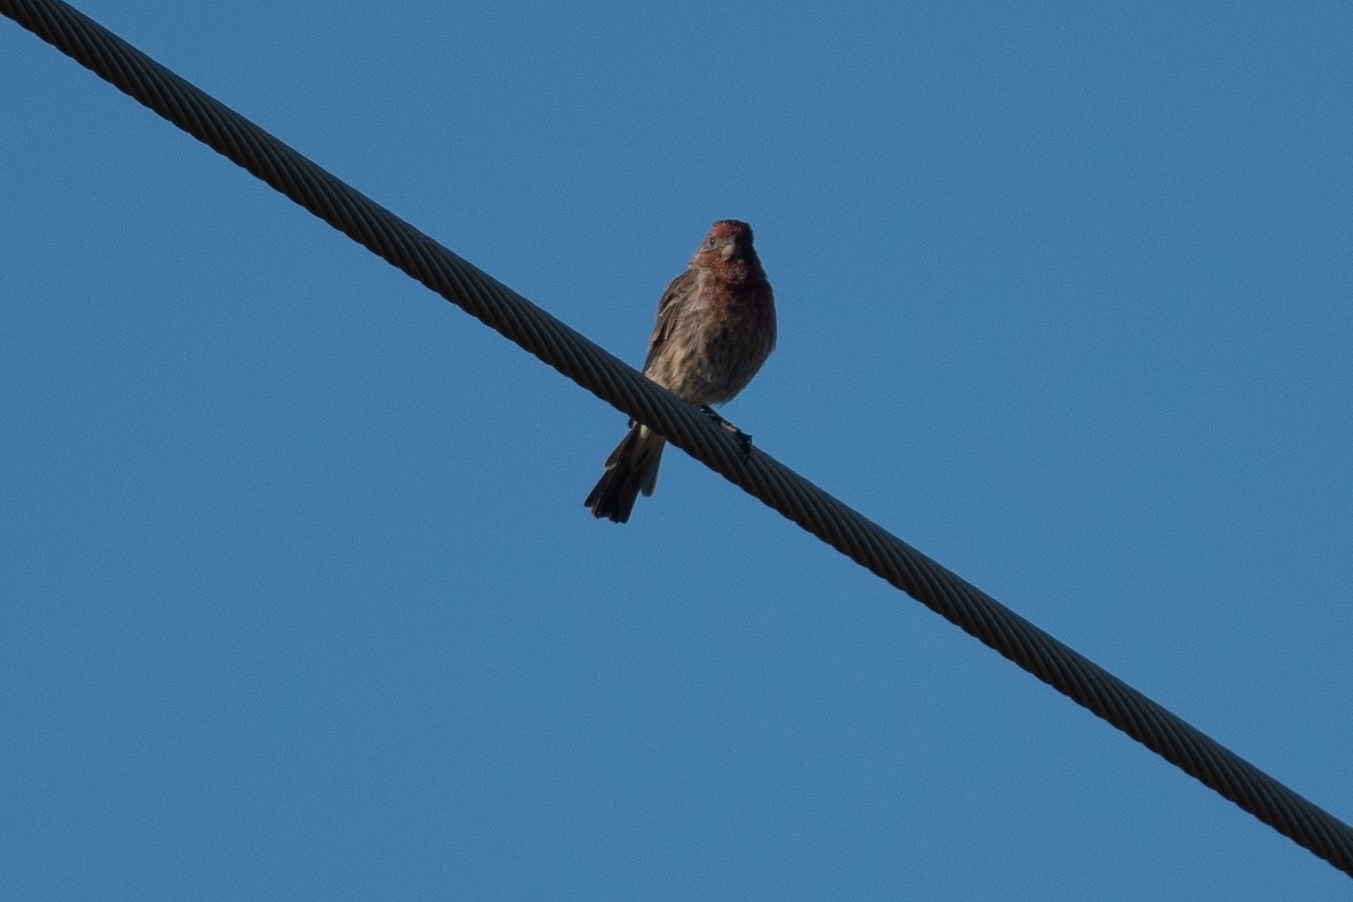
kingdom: Animalia
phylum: Chordata
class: Aves
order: Passeriformes
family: Fringillidae
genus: Haemorhous
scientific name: Haemorhous mexicanus
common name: House finch
